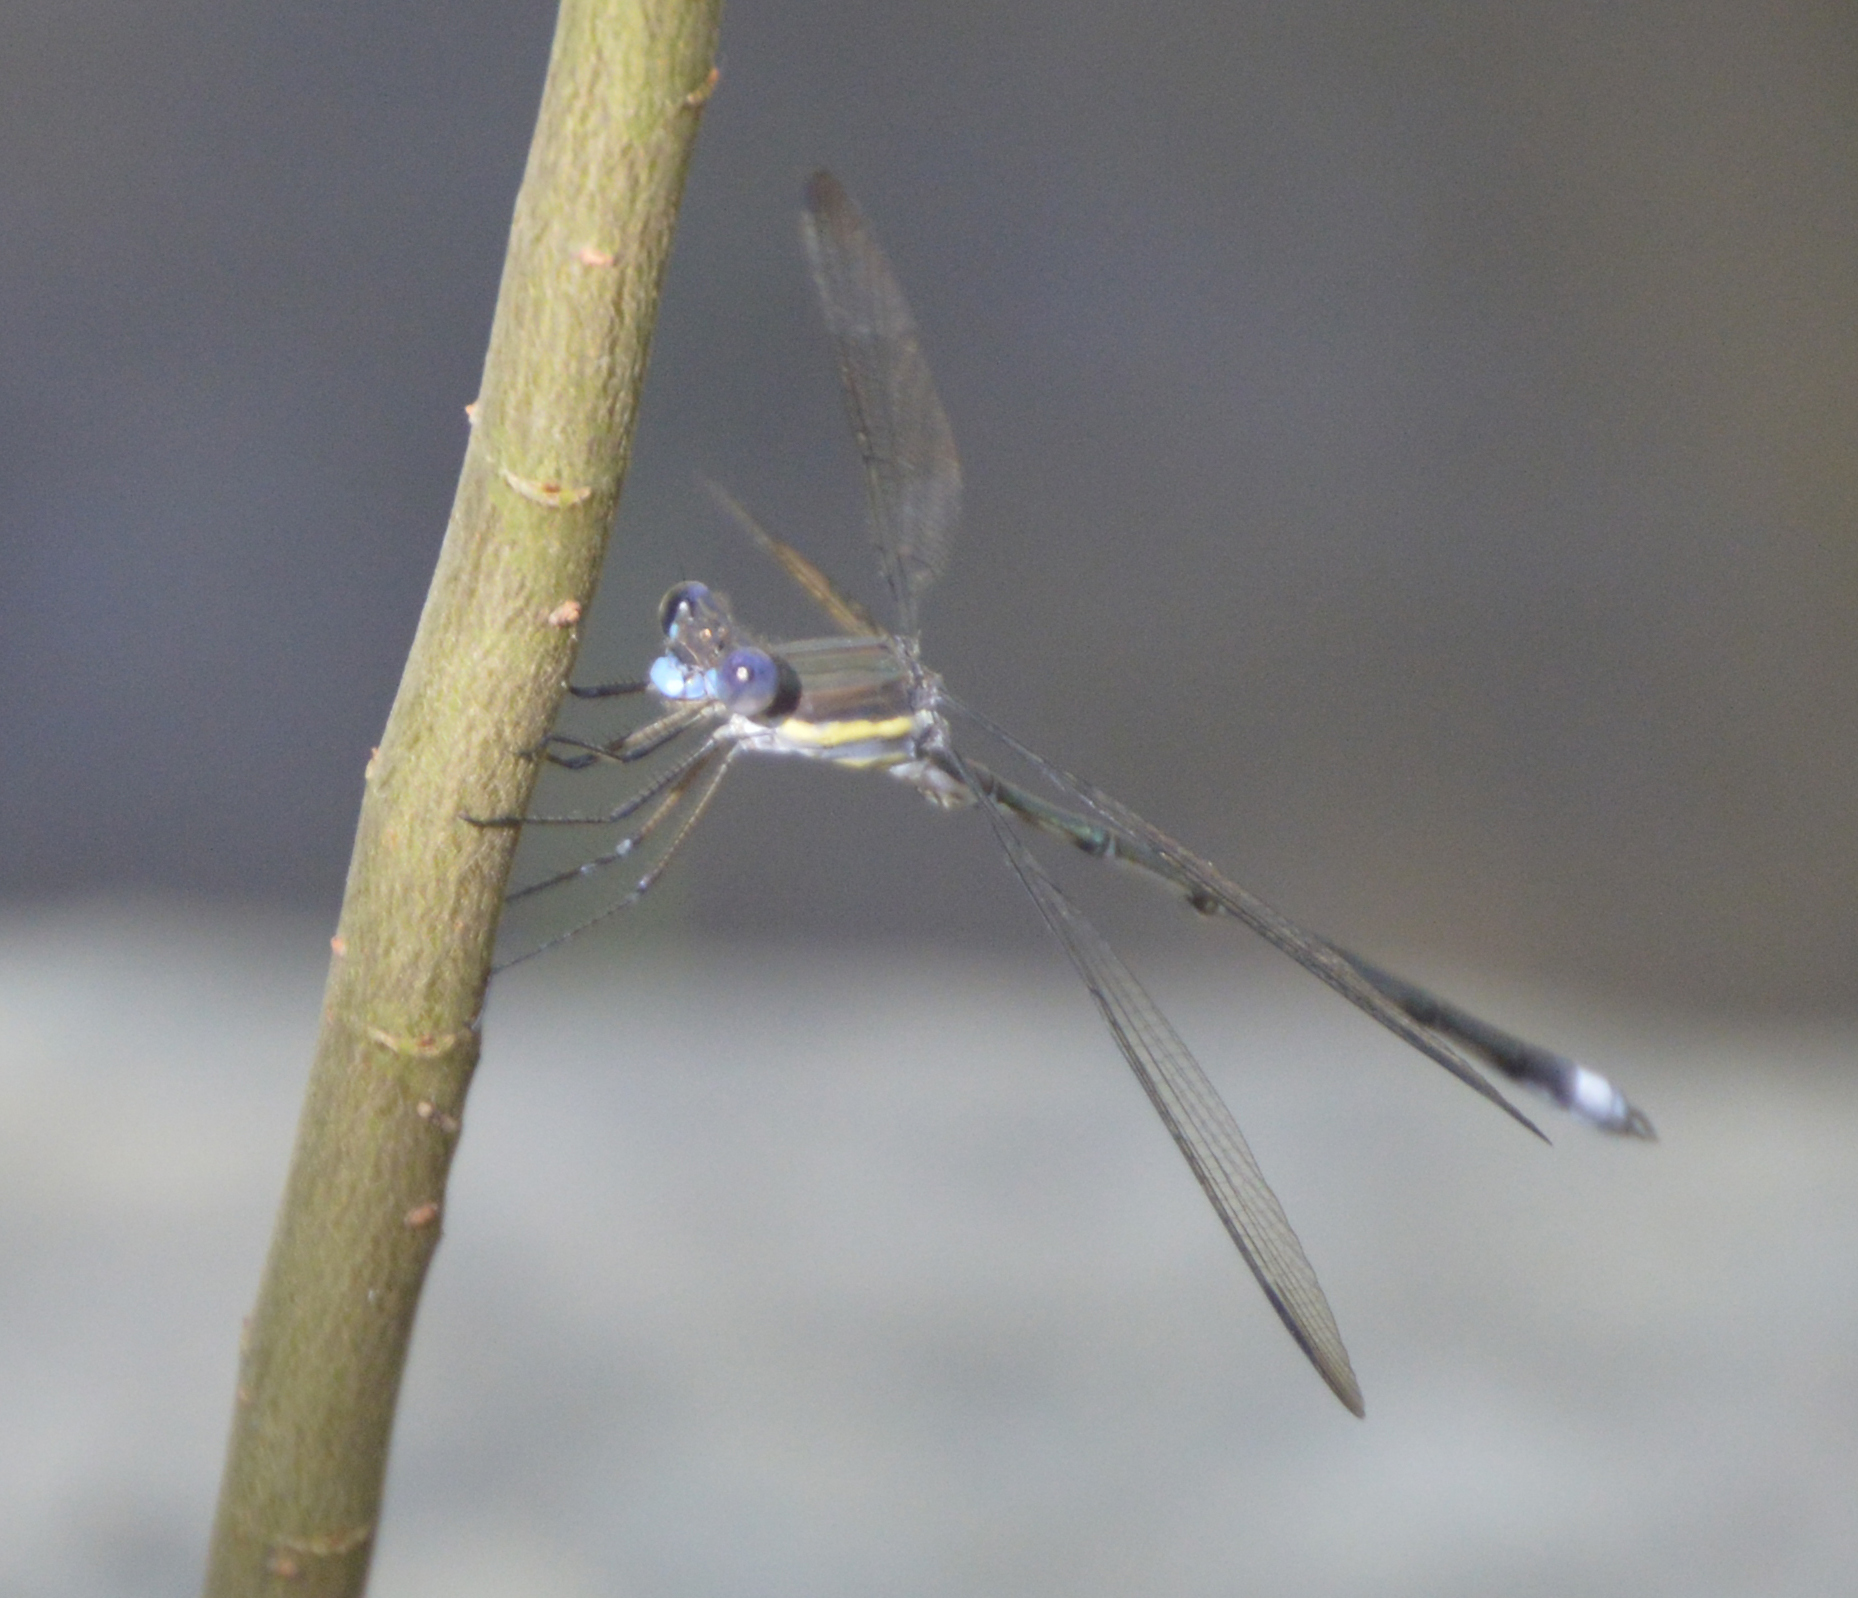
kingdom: Animalia
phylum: Arthropoda
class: Insecta
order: Odonata
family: Lestidae
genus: Archilestes
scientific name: Archilestes grandis
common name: Great spreadwing
